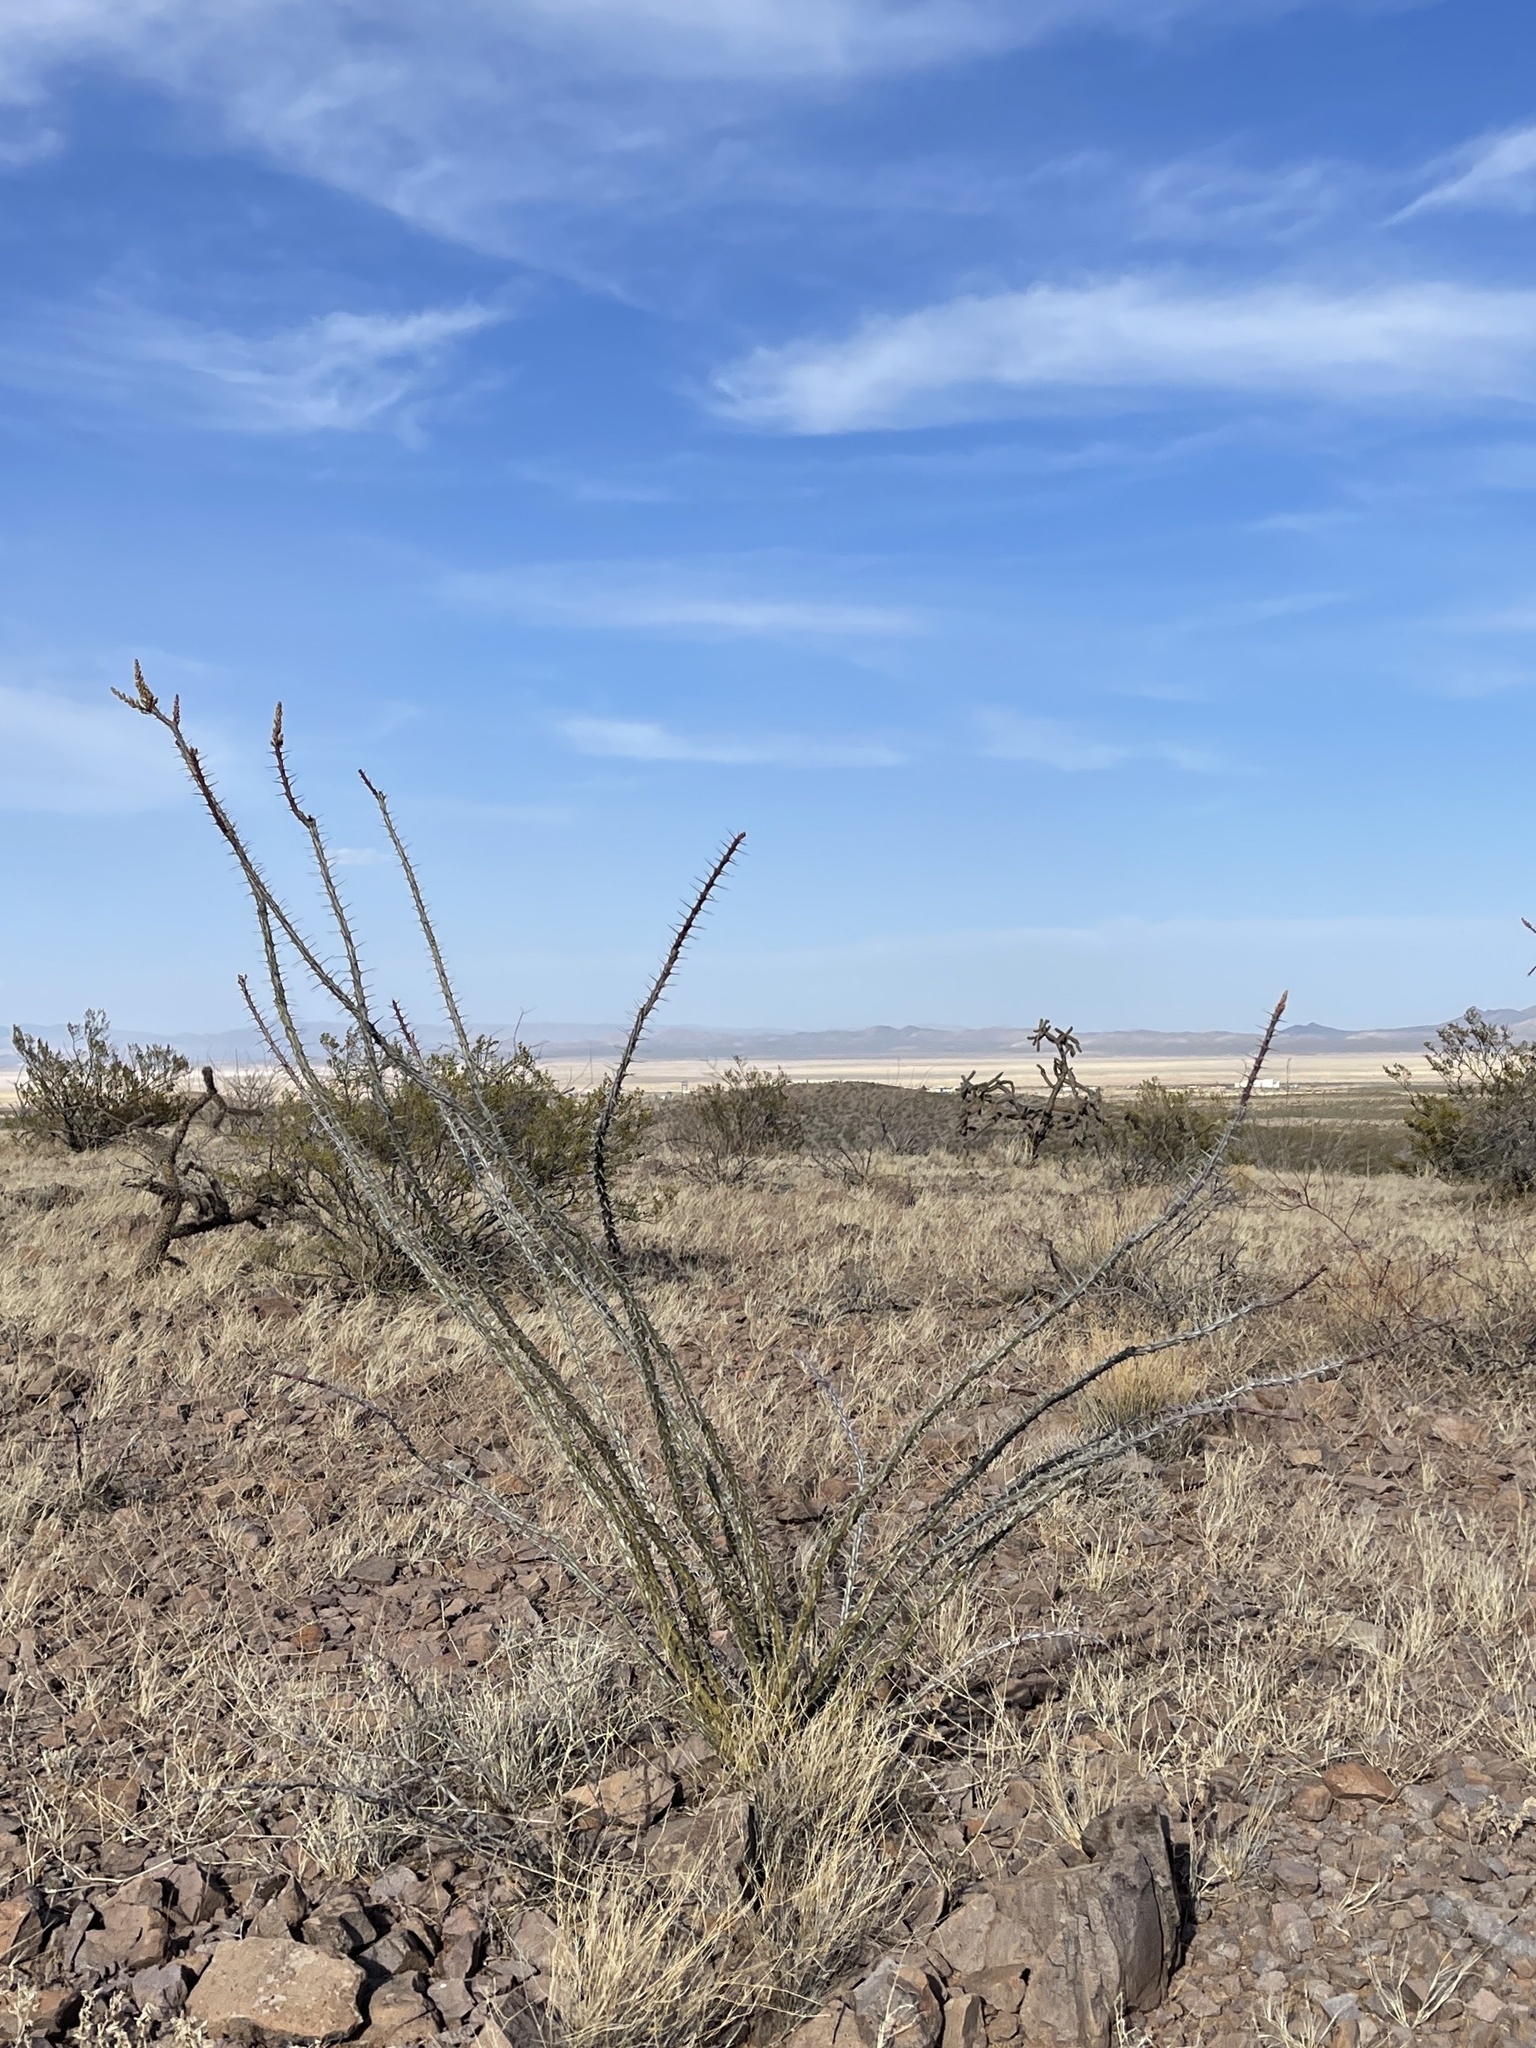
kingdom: Plantae
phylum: Tracheophyta
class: Magnoliopsida
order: Ericales
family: Fouquieriaceae
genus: Fouquieria
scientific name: Fouquieria splendens
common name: Vine-cactus
